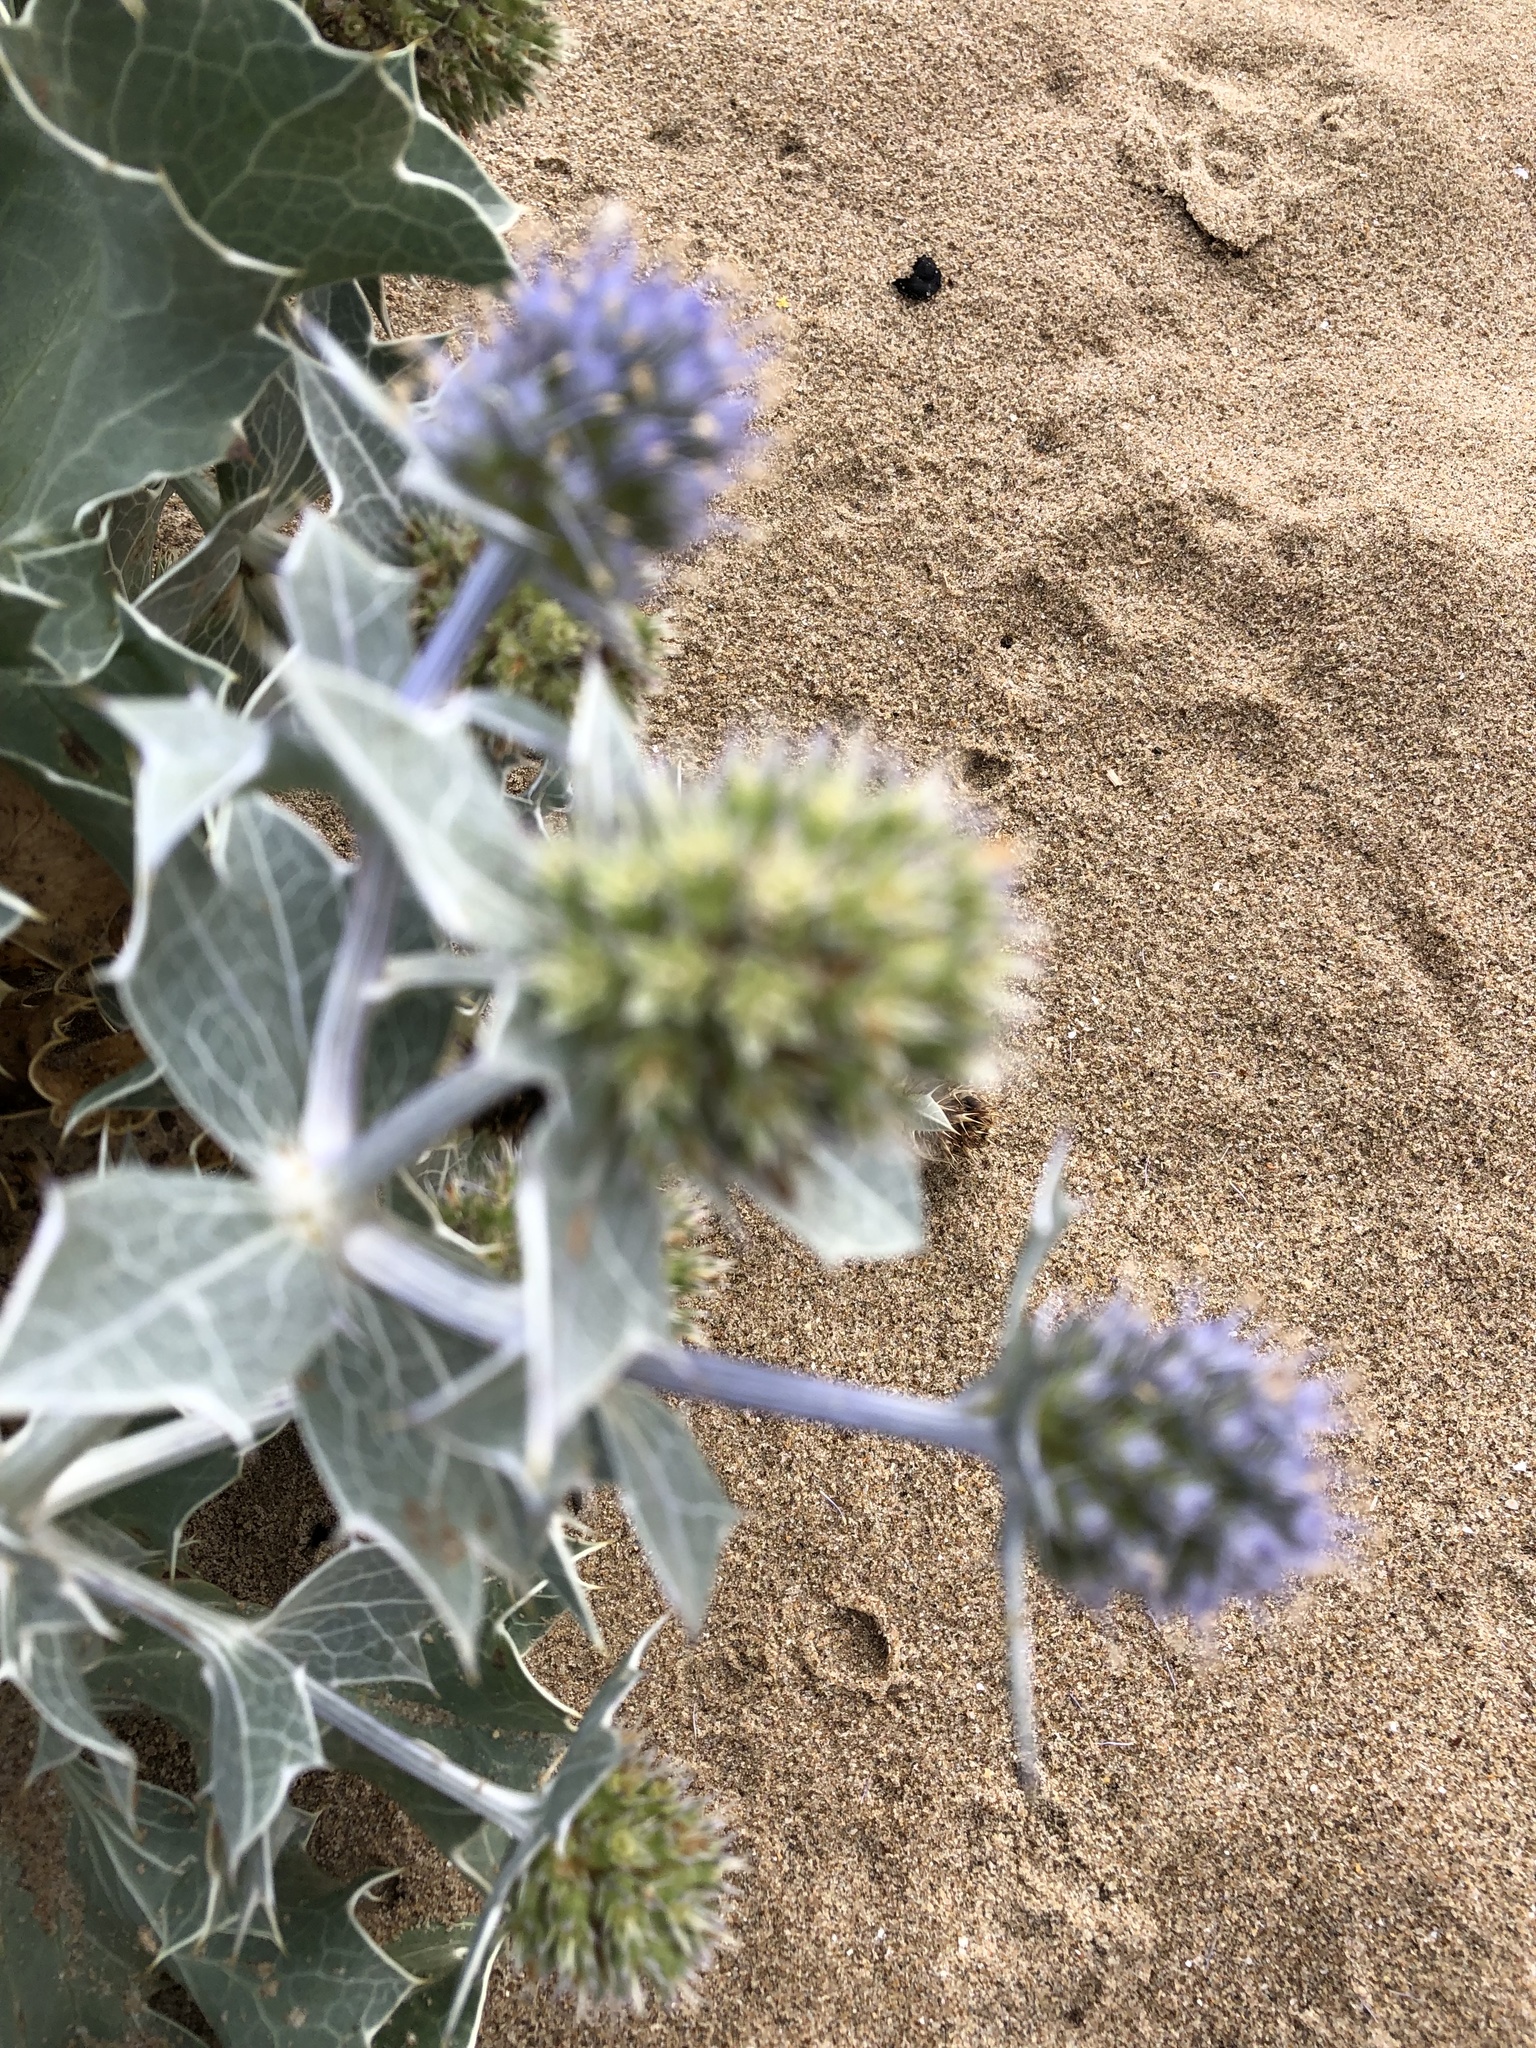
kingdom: Plantae
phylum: Tracheophyta
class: Magnoliopsida
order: Apiales
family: Apiaceae
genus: Eryngium
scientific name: Eryngium maritimum
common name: Sea-holly
